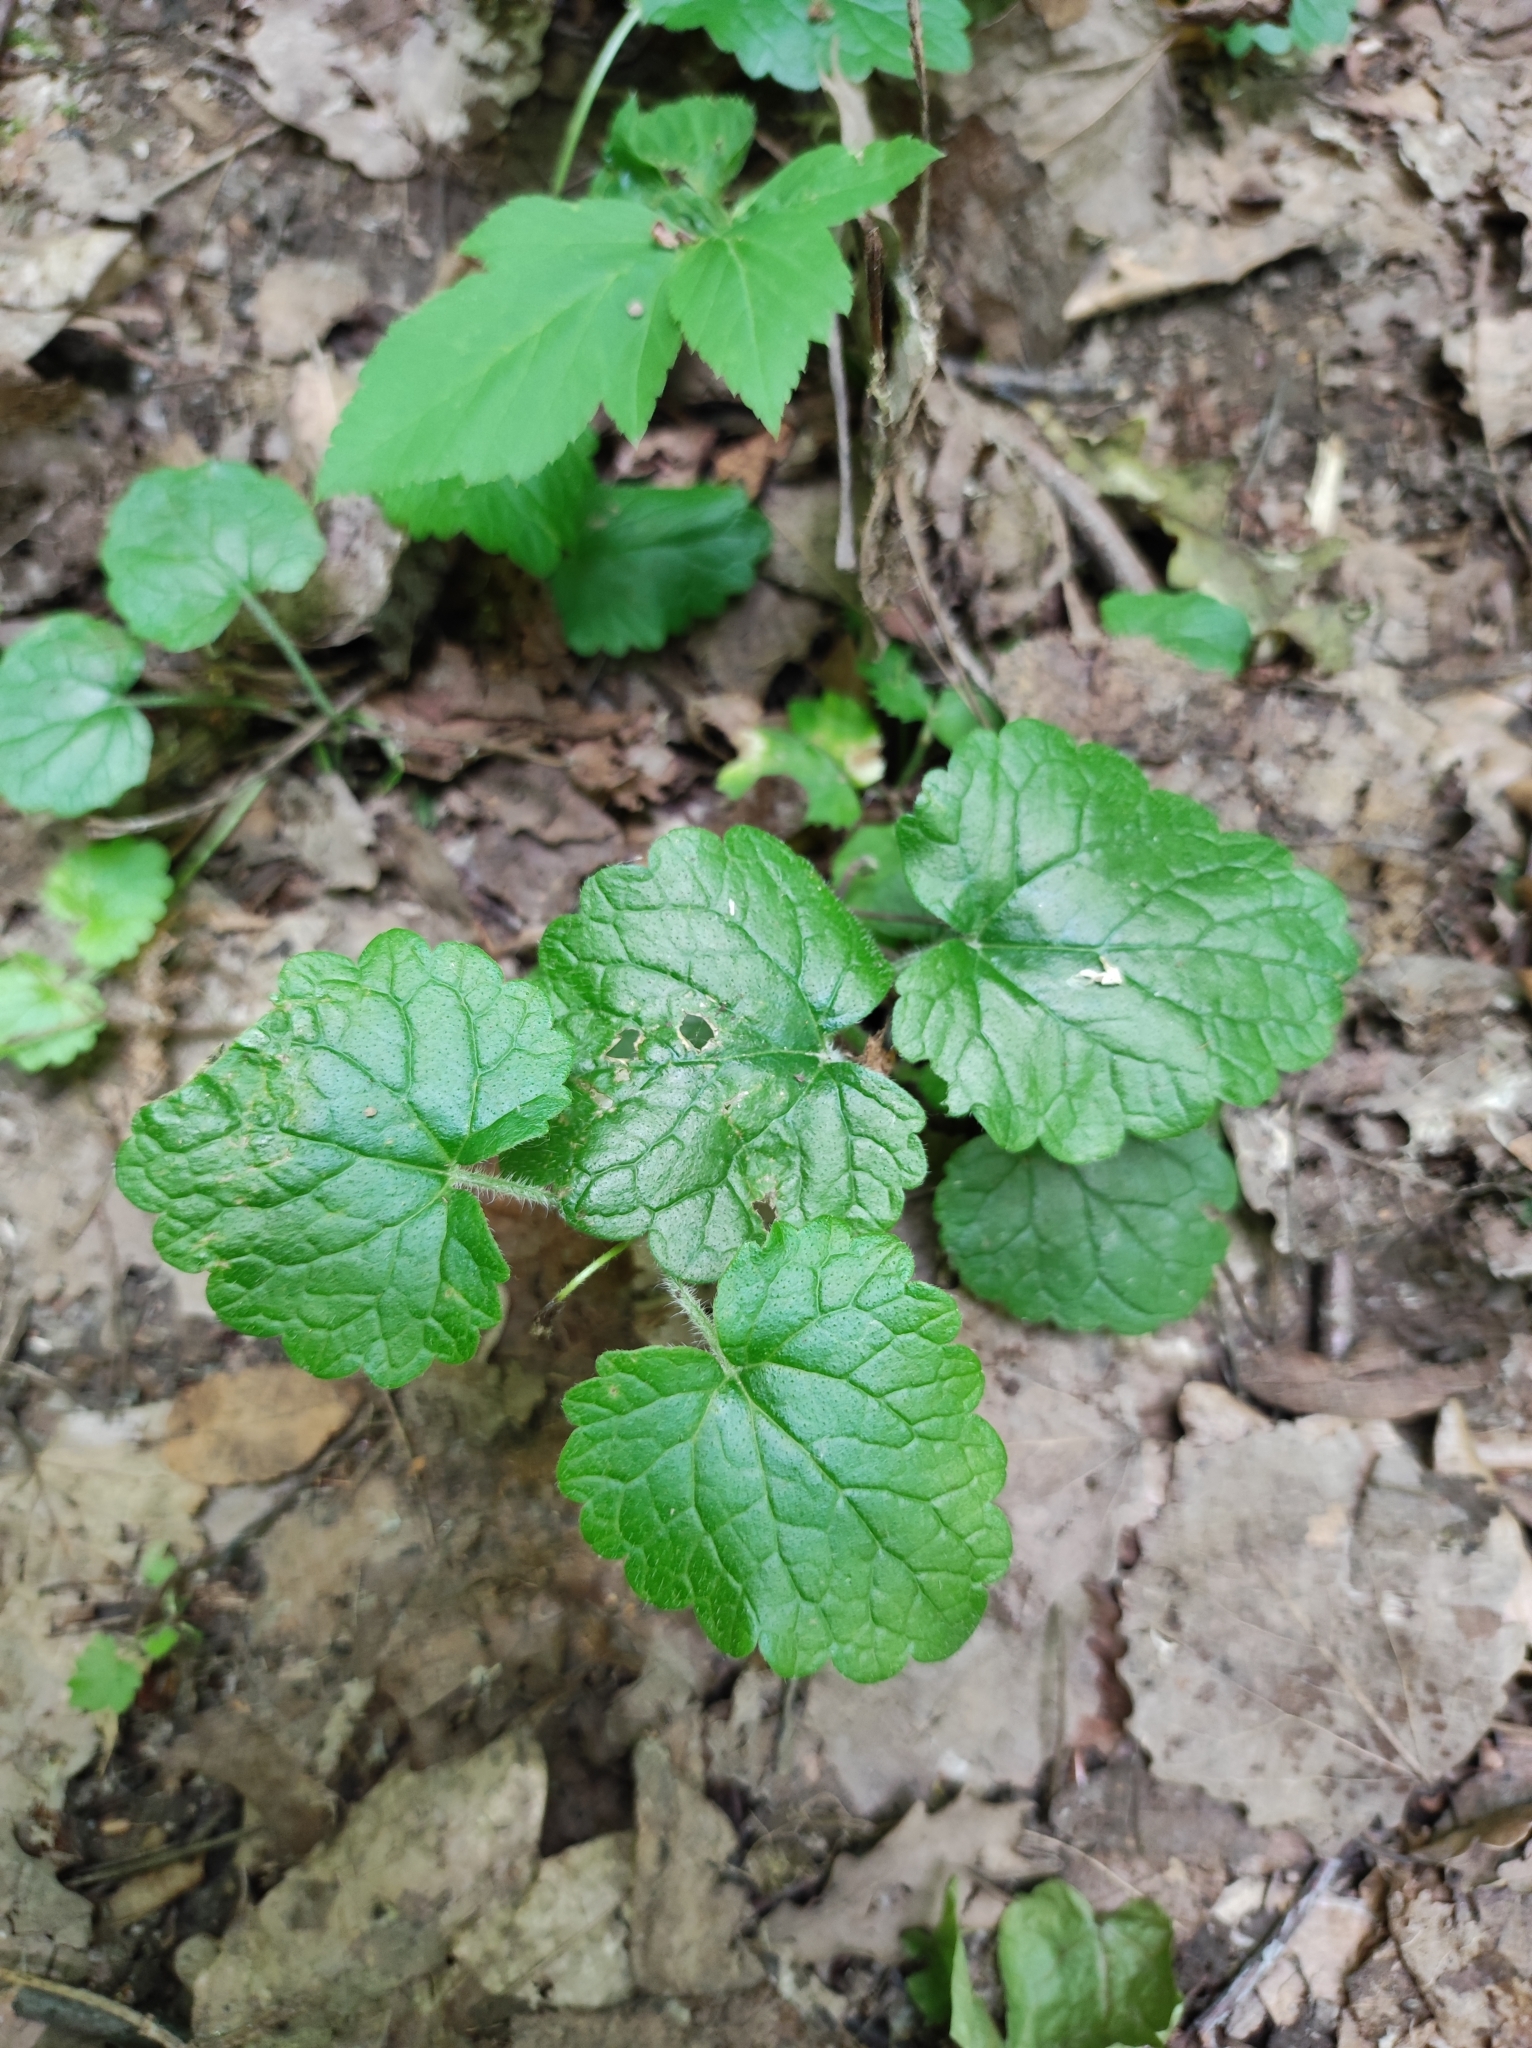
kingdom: Plantae
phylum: Tracheophyta
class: Magnoliopsida
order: Lamiales
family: Lamiaceae
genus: Glechoma
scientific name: Glechoma hederacea
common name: Ground ivy
